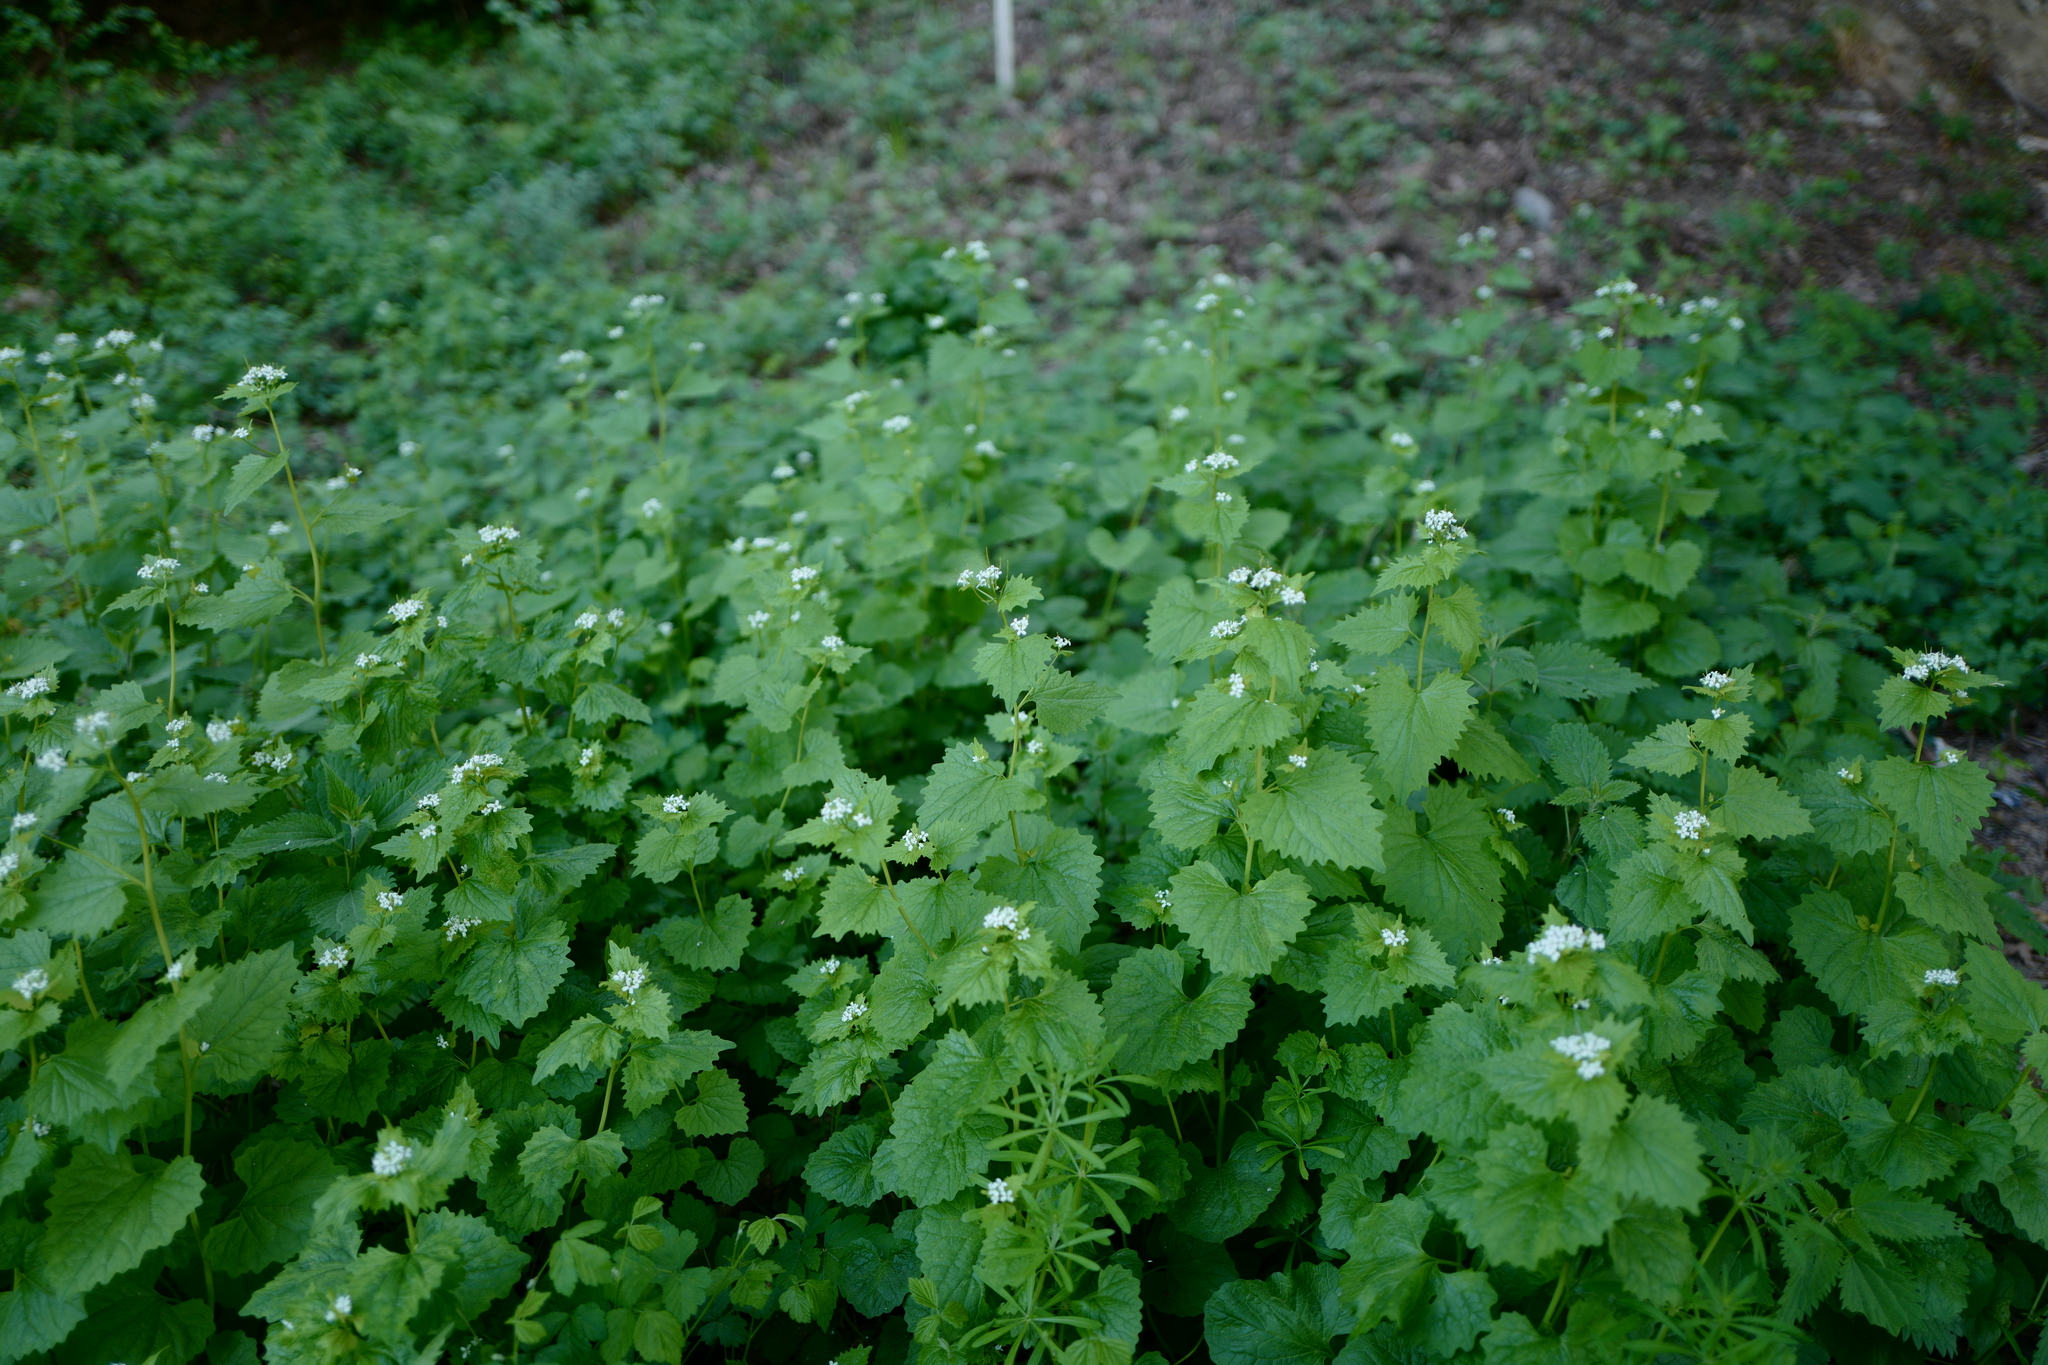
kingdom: Plantae
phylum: Tracheophyta
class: Magnoliopsida
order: Brassicales
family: Brassicaceae
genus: Alliaria
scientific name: Alliaria petiolata
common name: Garlic mustard
